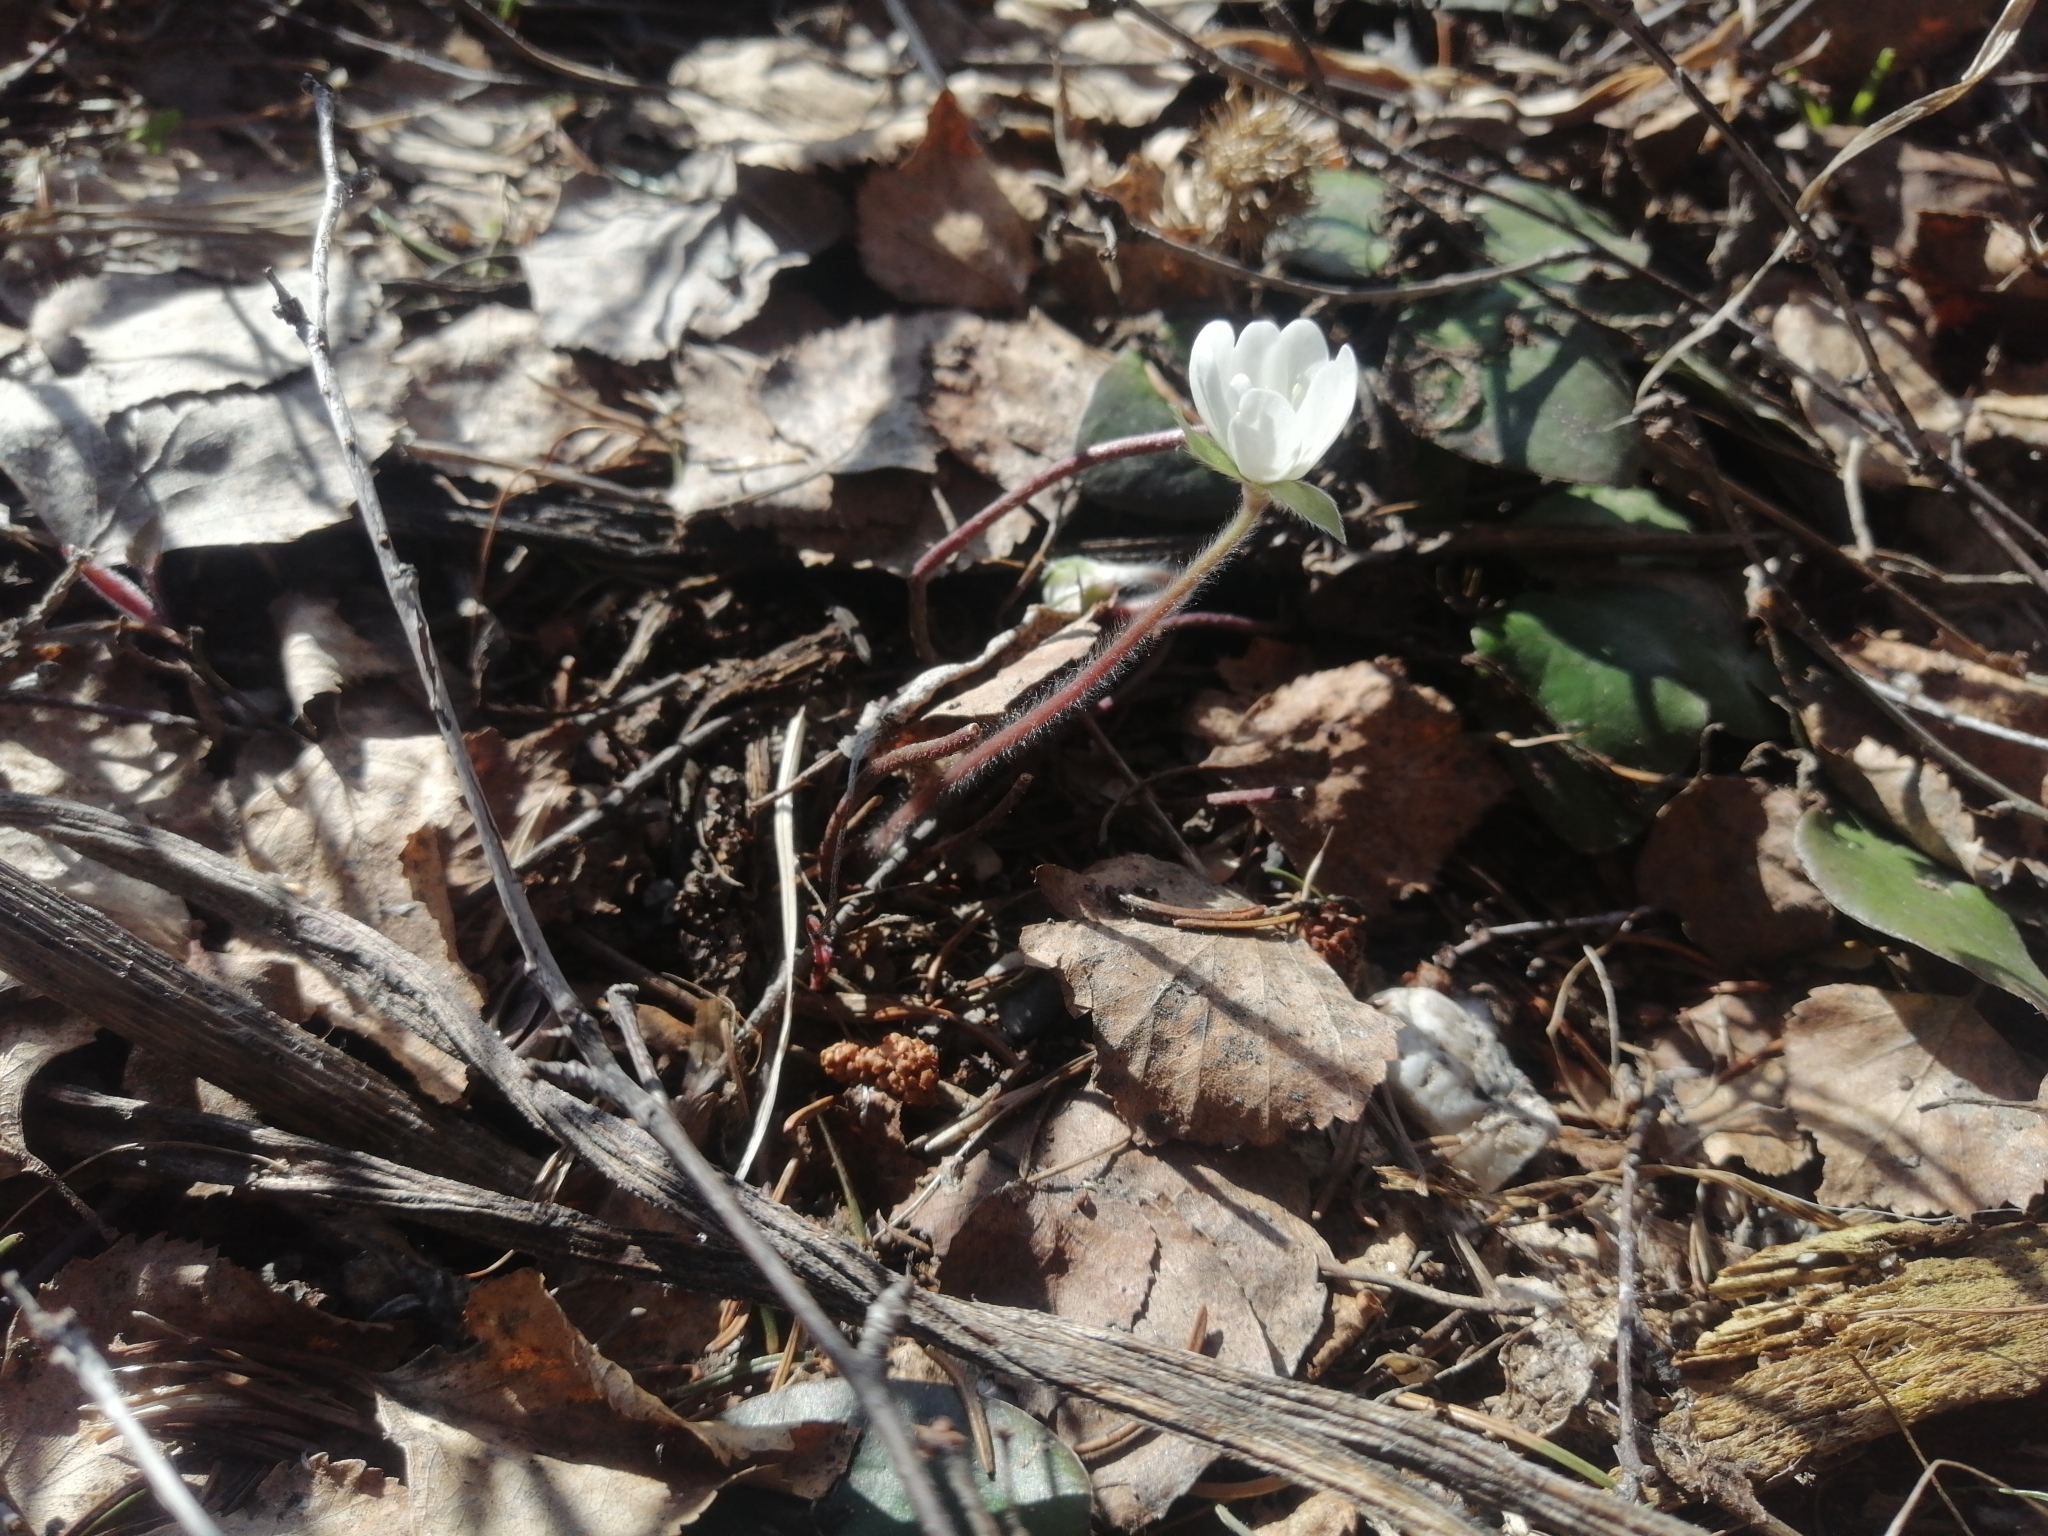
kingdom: Plantae
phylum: Tracheophyta
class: Magnoliopsida
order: Ranunculales
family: Ranunculaceae
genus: Hepatica
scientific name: Hepatica nobilis
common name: Liverleaf
